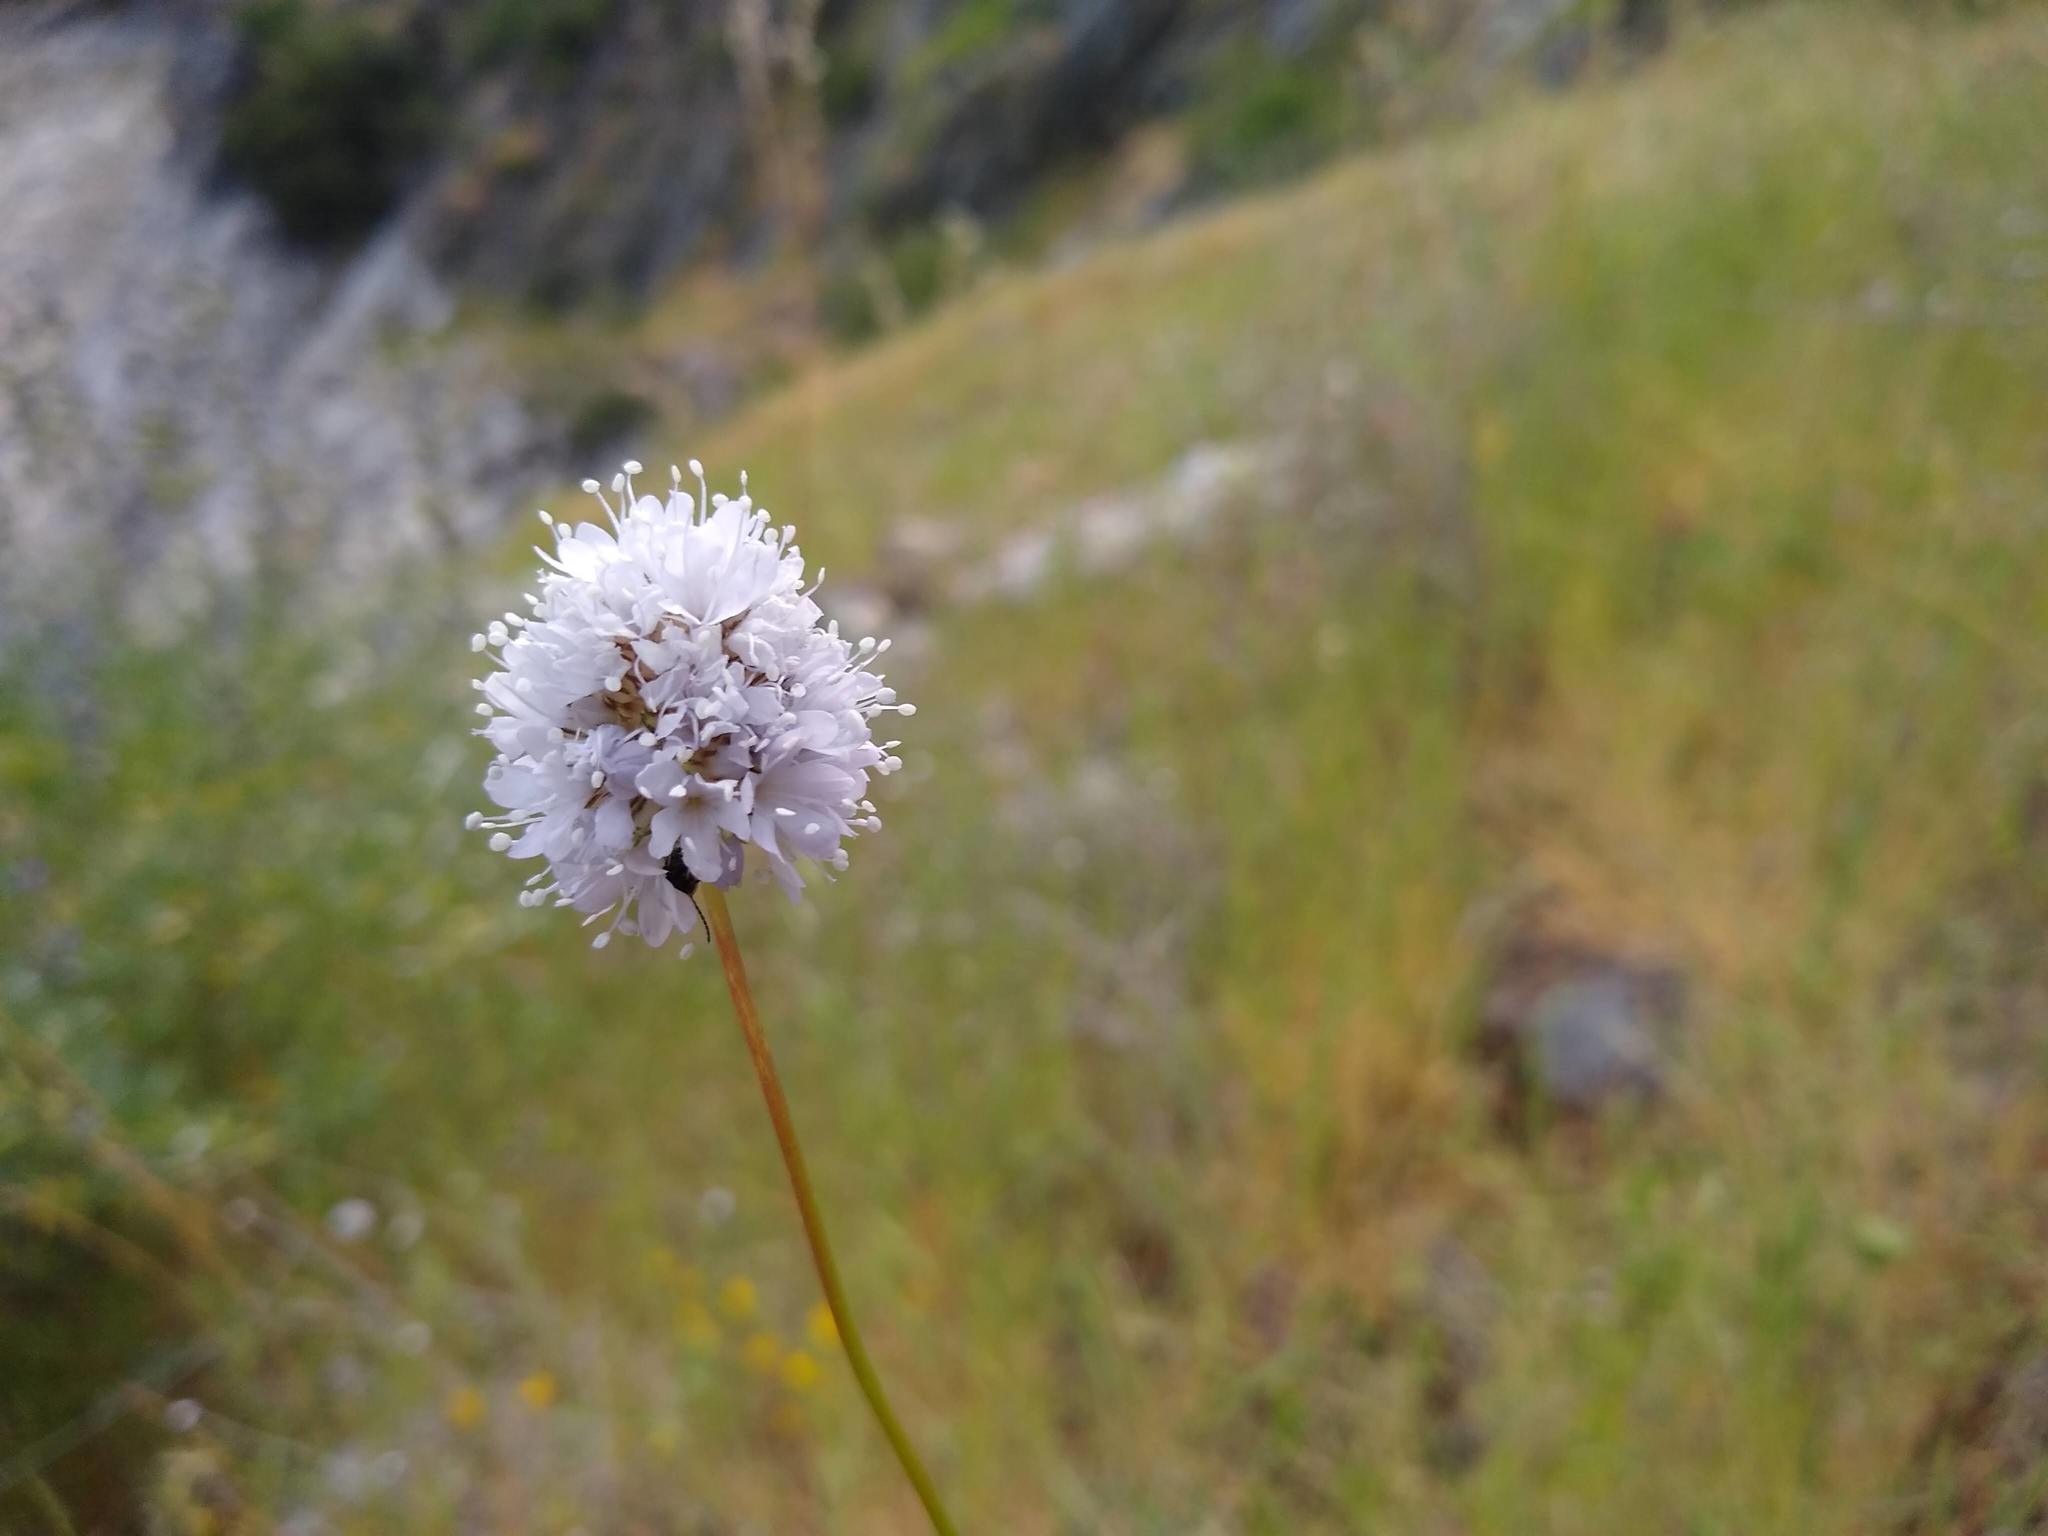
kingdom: Plantae
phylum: Tracheophyta
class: Magnoliopsida
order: Ericales
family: Polemoniaceae
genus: Gilia
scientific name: Gilia capitata
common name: Bluehead gilia
